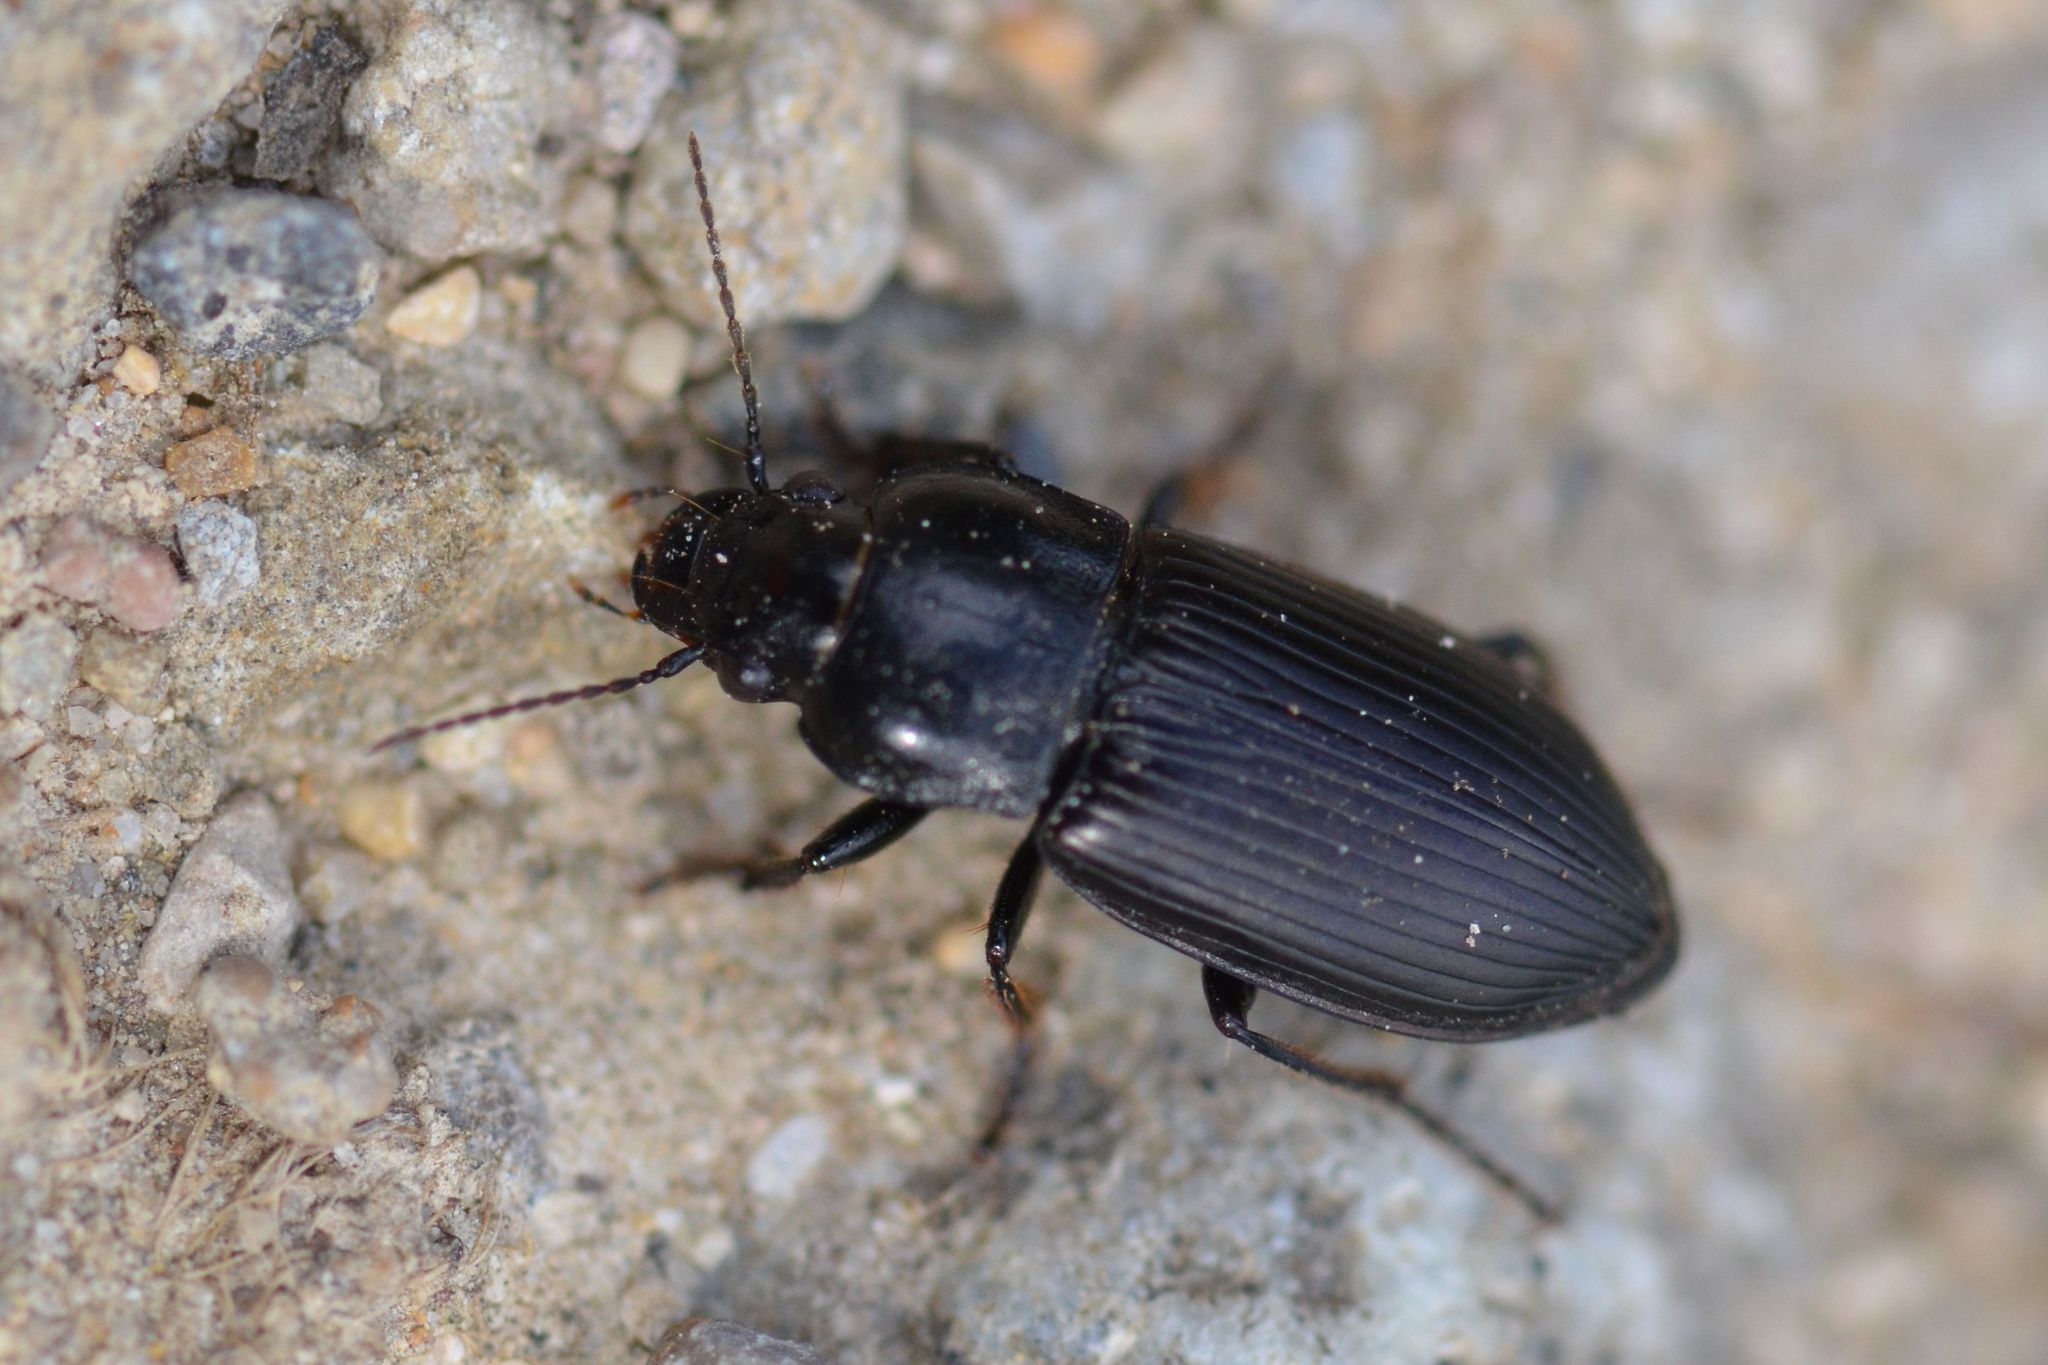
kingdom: Animalia
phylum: Arthropoda
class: Insecta
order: Coleoptera
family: Carabidae
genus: Anisodactylus
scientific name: Anisodactylus signatus
